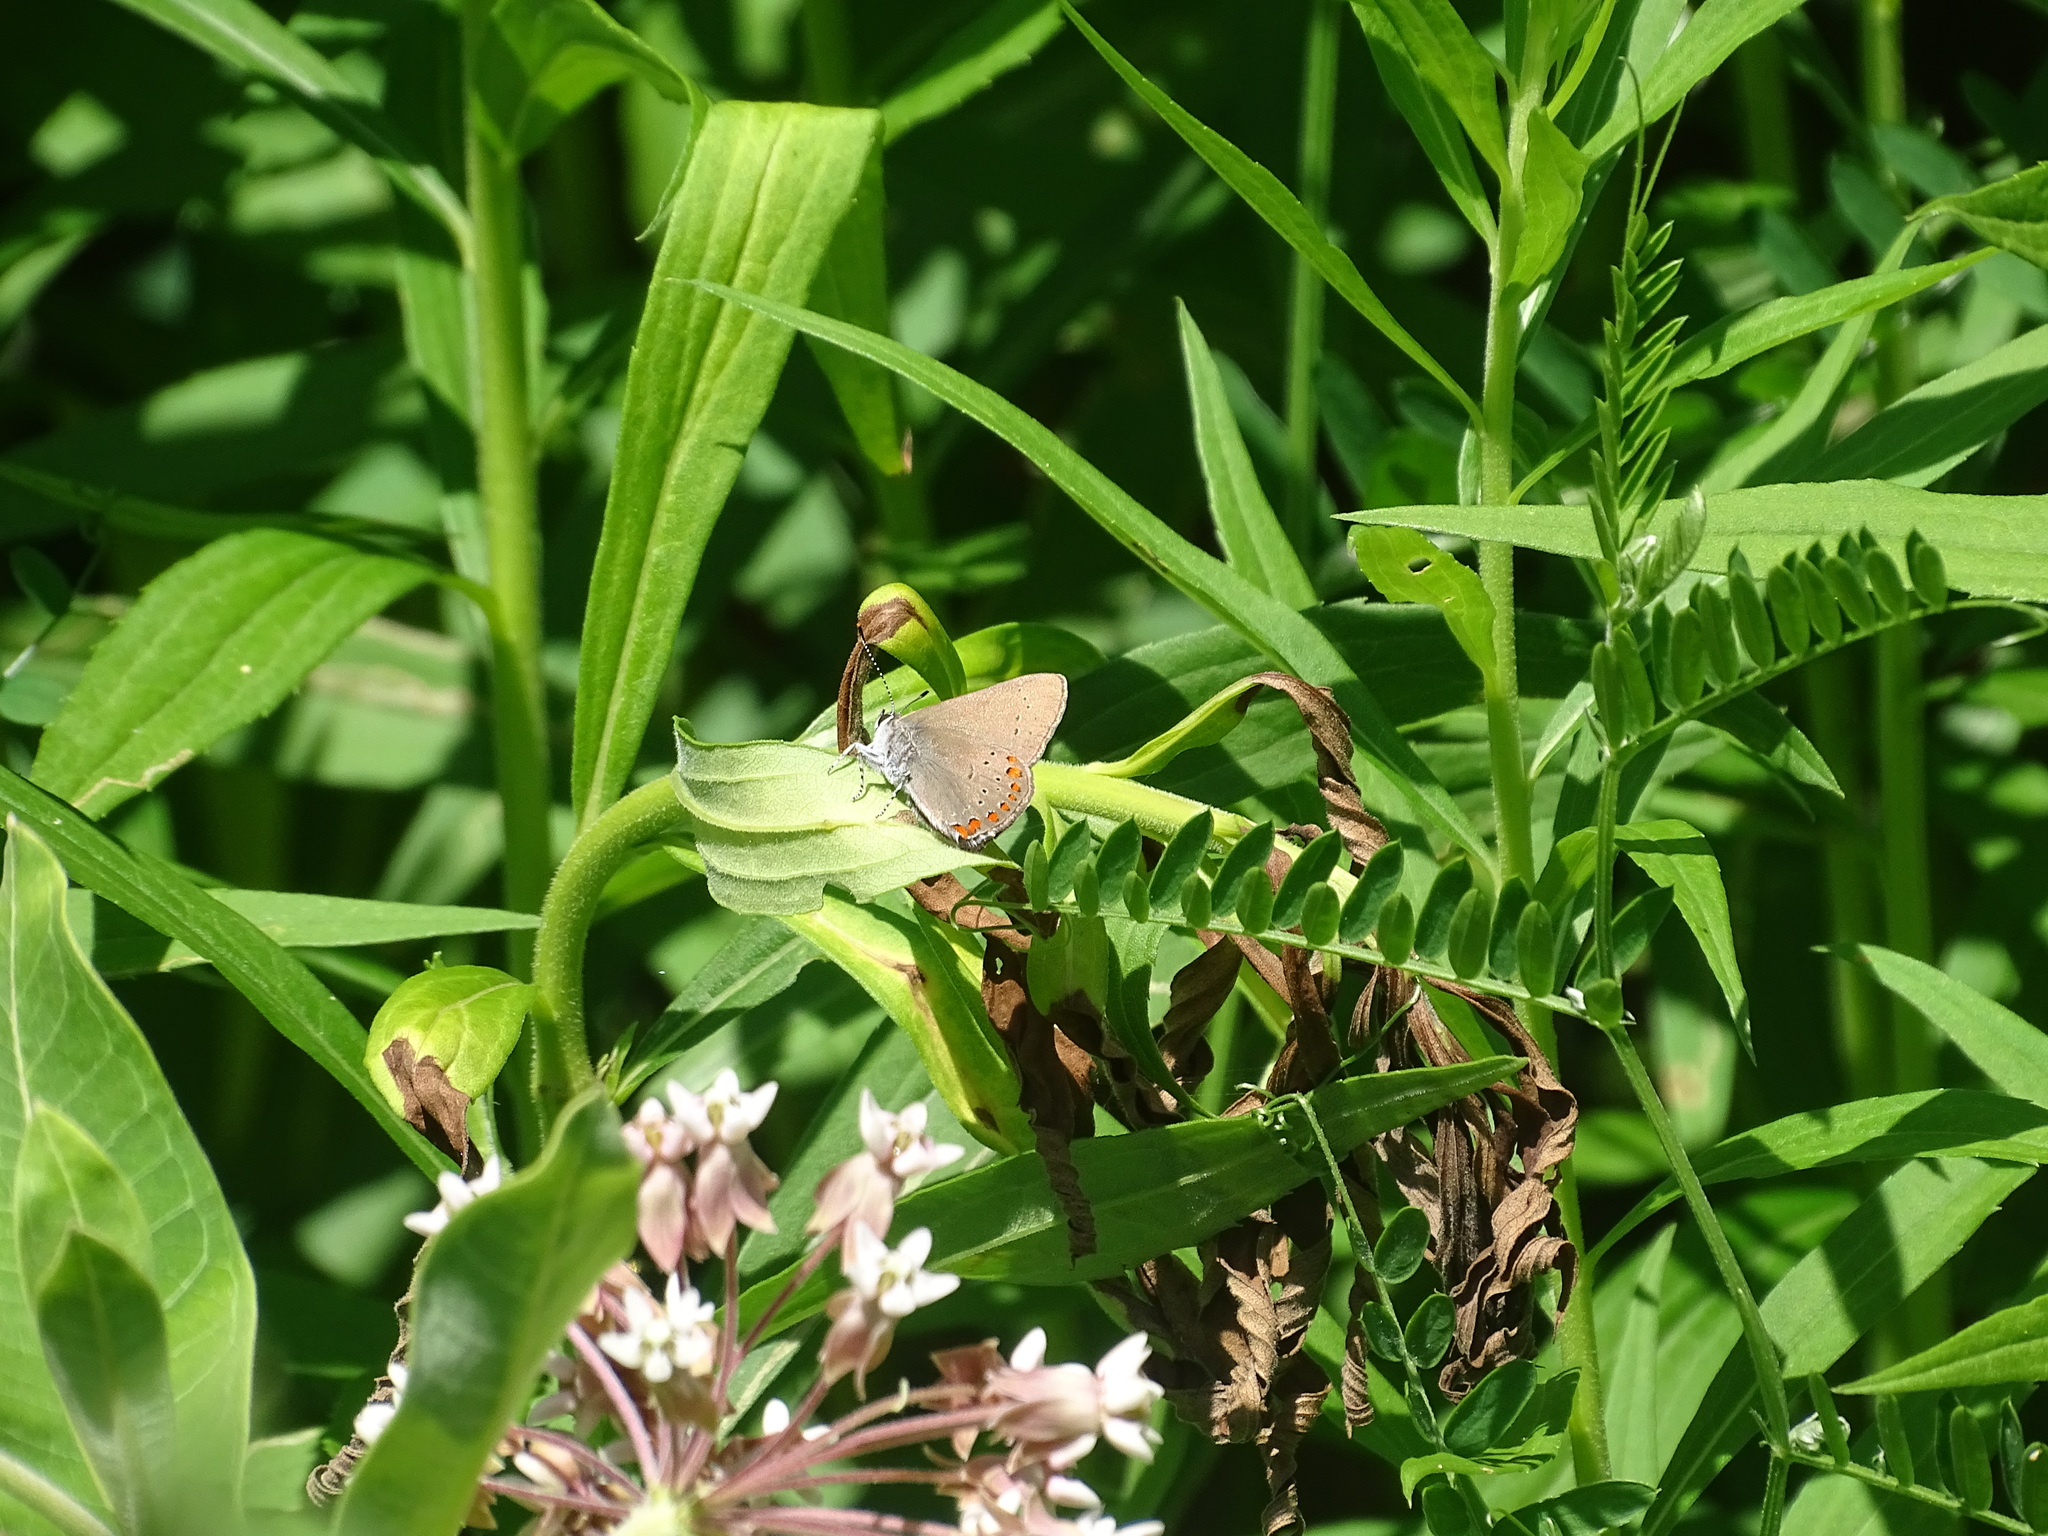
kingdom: Animalia
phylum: Arthropoda
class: Insecta
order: Lepidoptera
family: Lycaenidae
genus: Harkenclenus
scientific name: Harkenclenus titus
